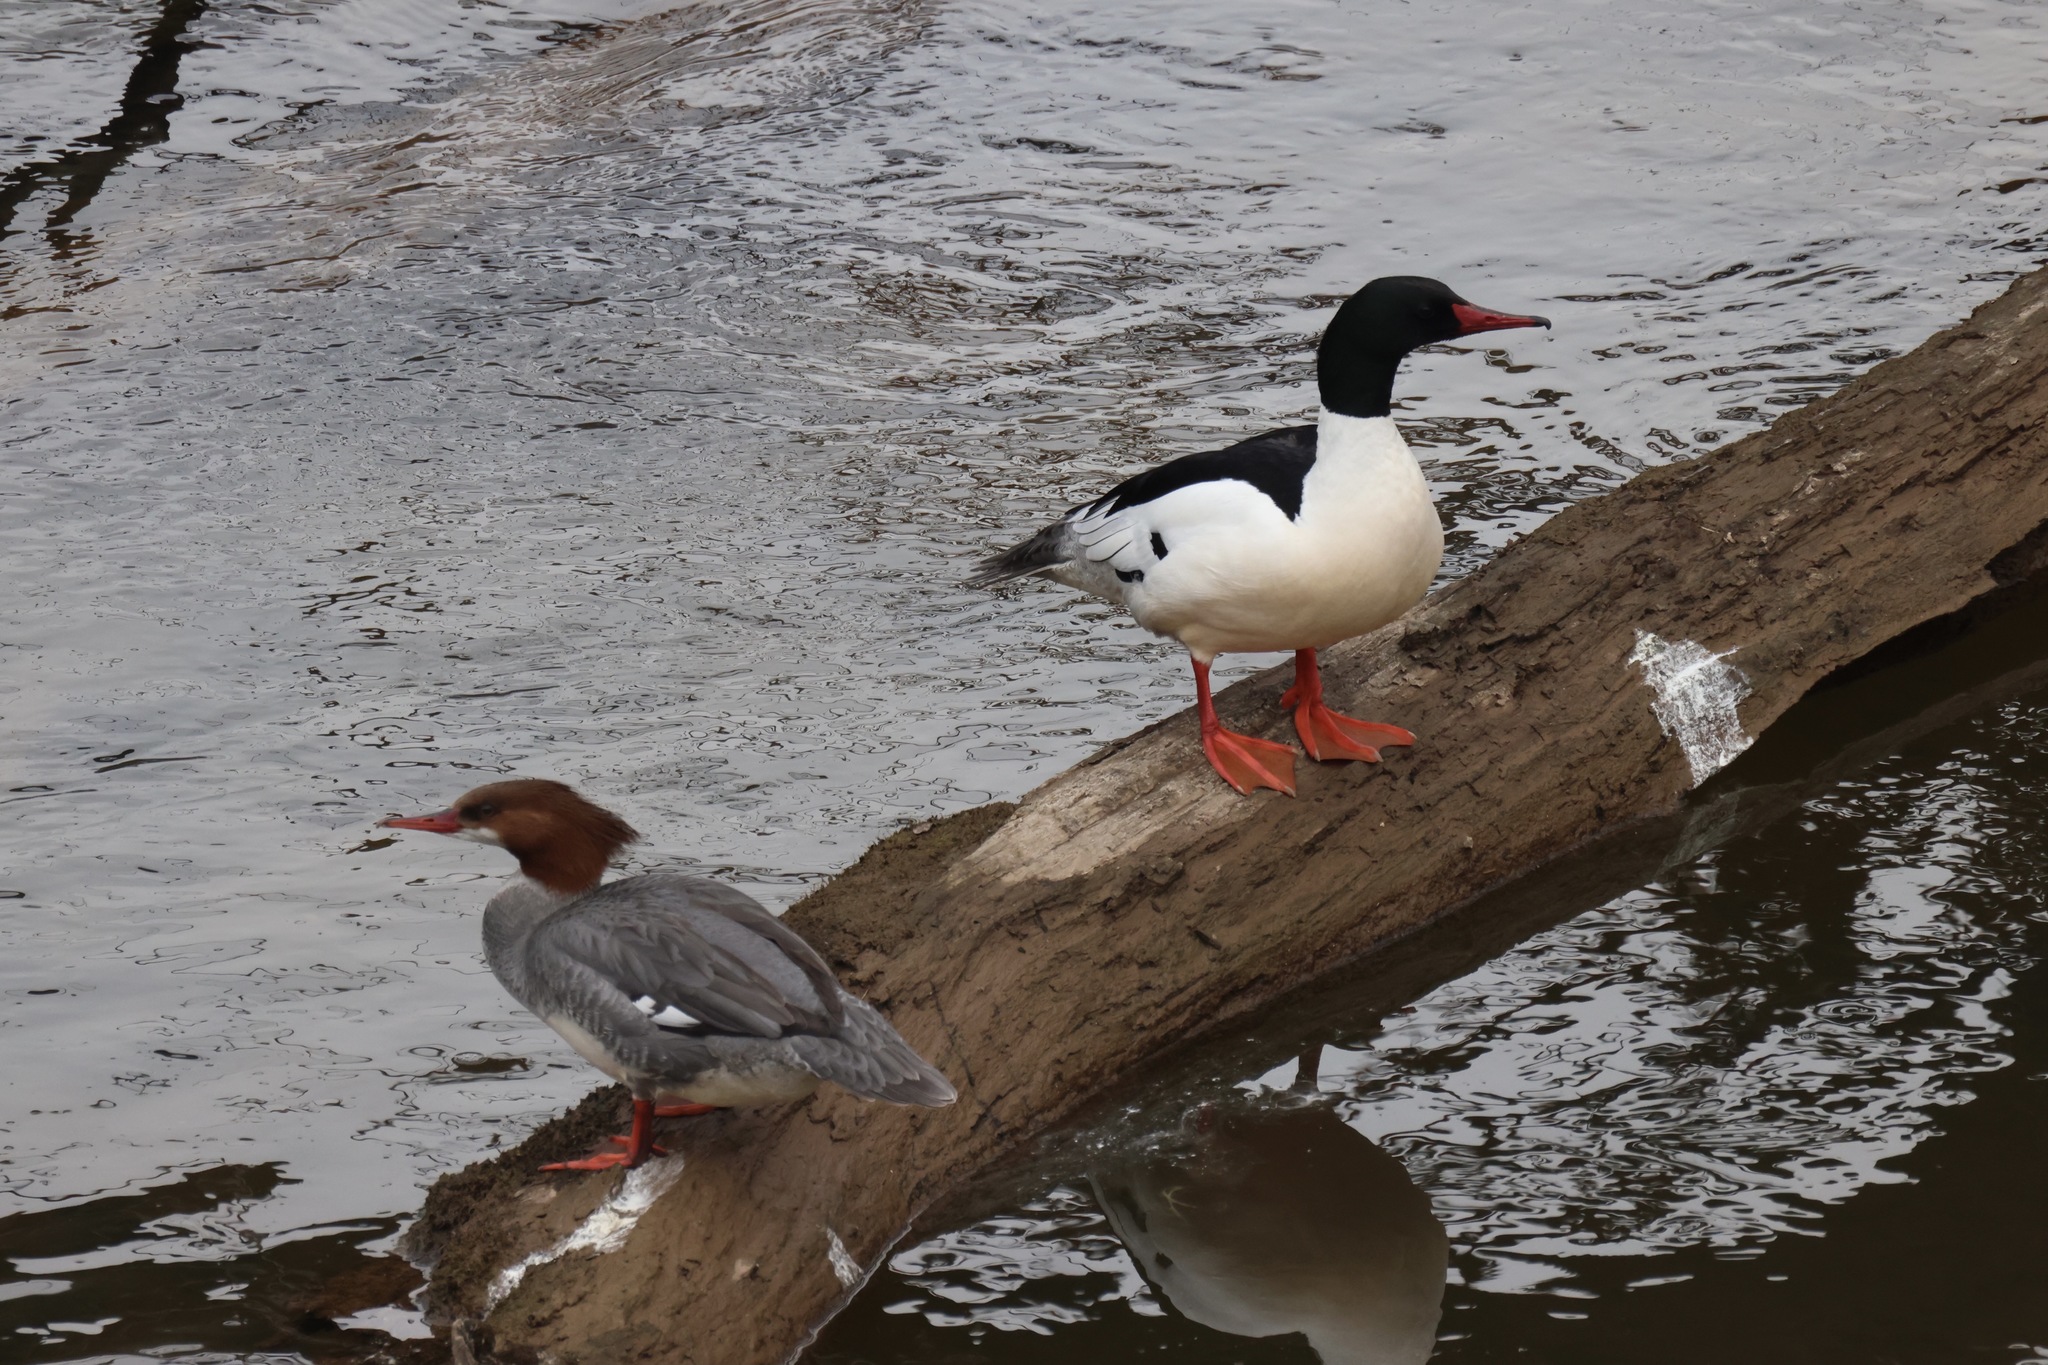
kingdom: Animalia
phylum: Chordata
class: Aves
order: Anseriformes
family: Anatidae
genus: Mergus
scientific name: Mergus merganser
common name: Common merganser
